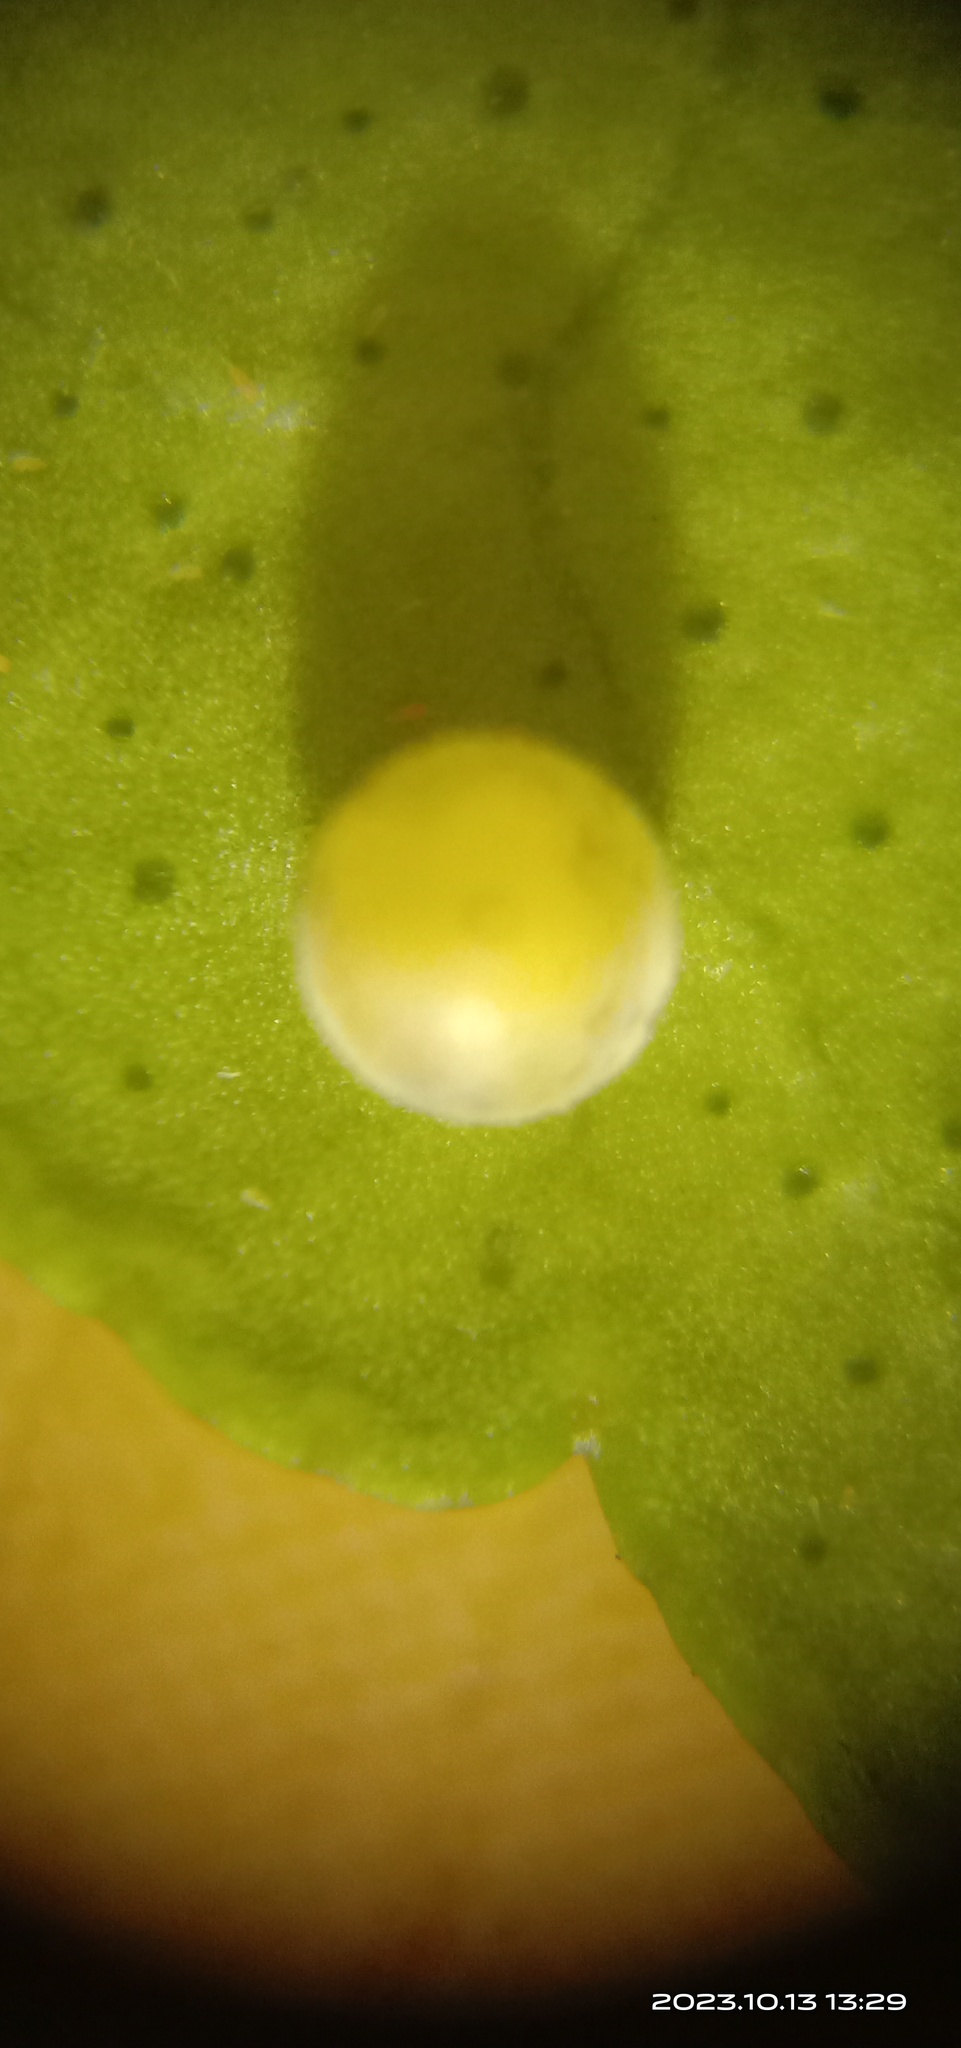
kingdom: Animalia
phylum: Arthropoda
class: Insecta
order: Lepidoptera
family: Papilionidae
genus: Papilio
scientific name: Papilio demoleus
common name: Lime butterfly
